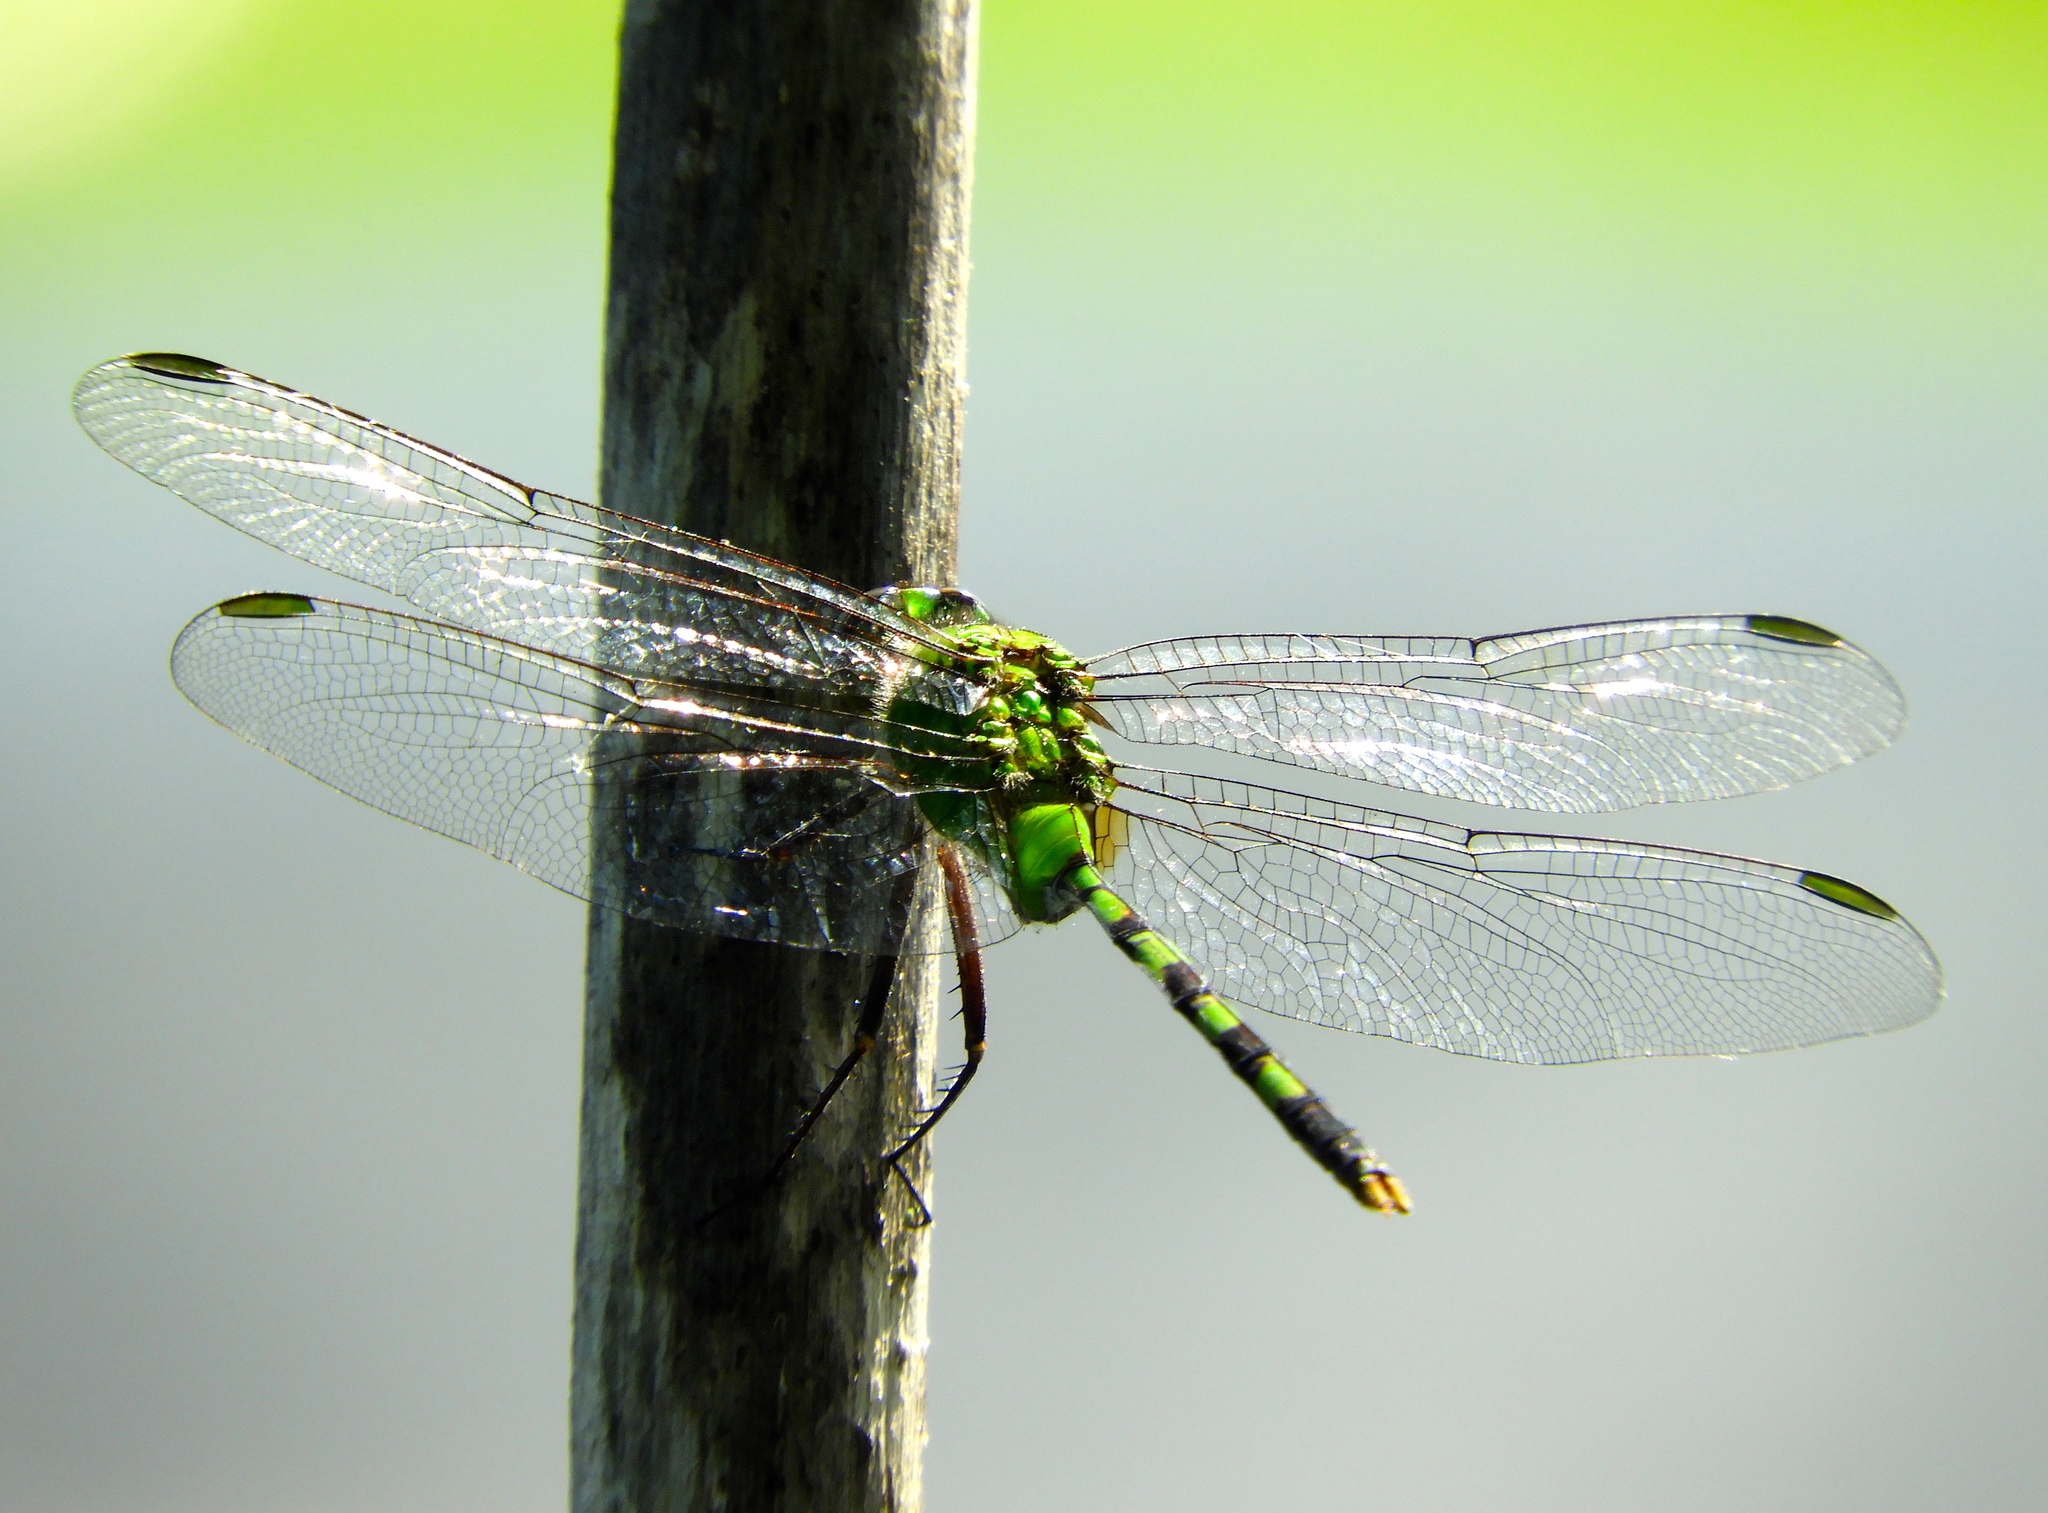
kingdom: Animalia
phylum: Arthropoda
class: Insecta
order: Odonata
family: Libellulidae
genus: Erythemis
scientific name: Erythemis vesiculosa
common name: Great pondhawk
